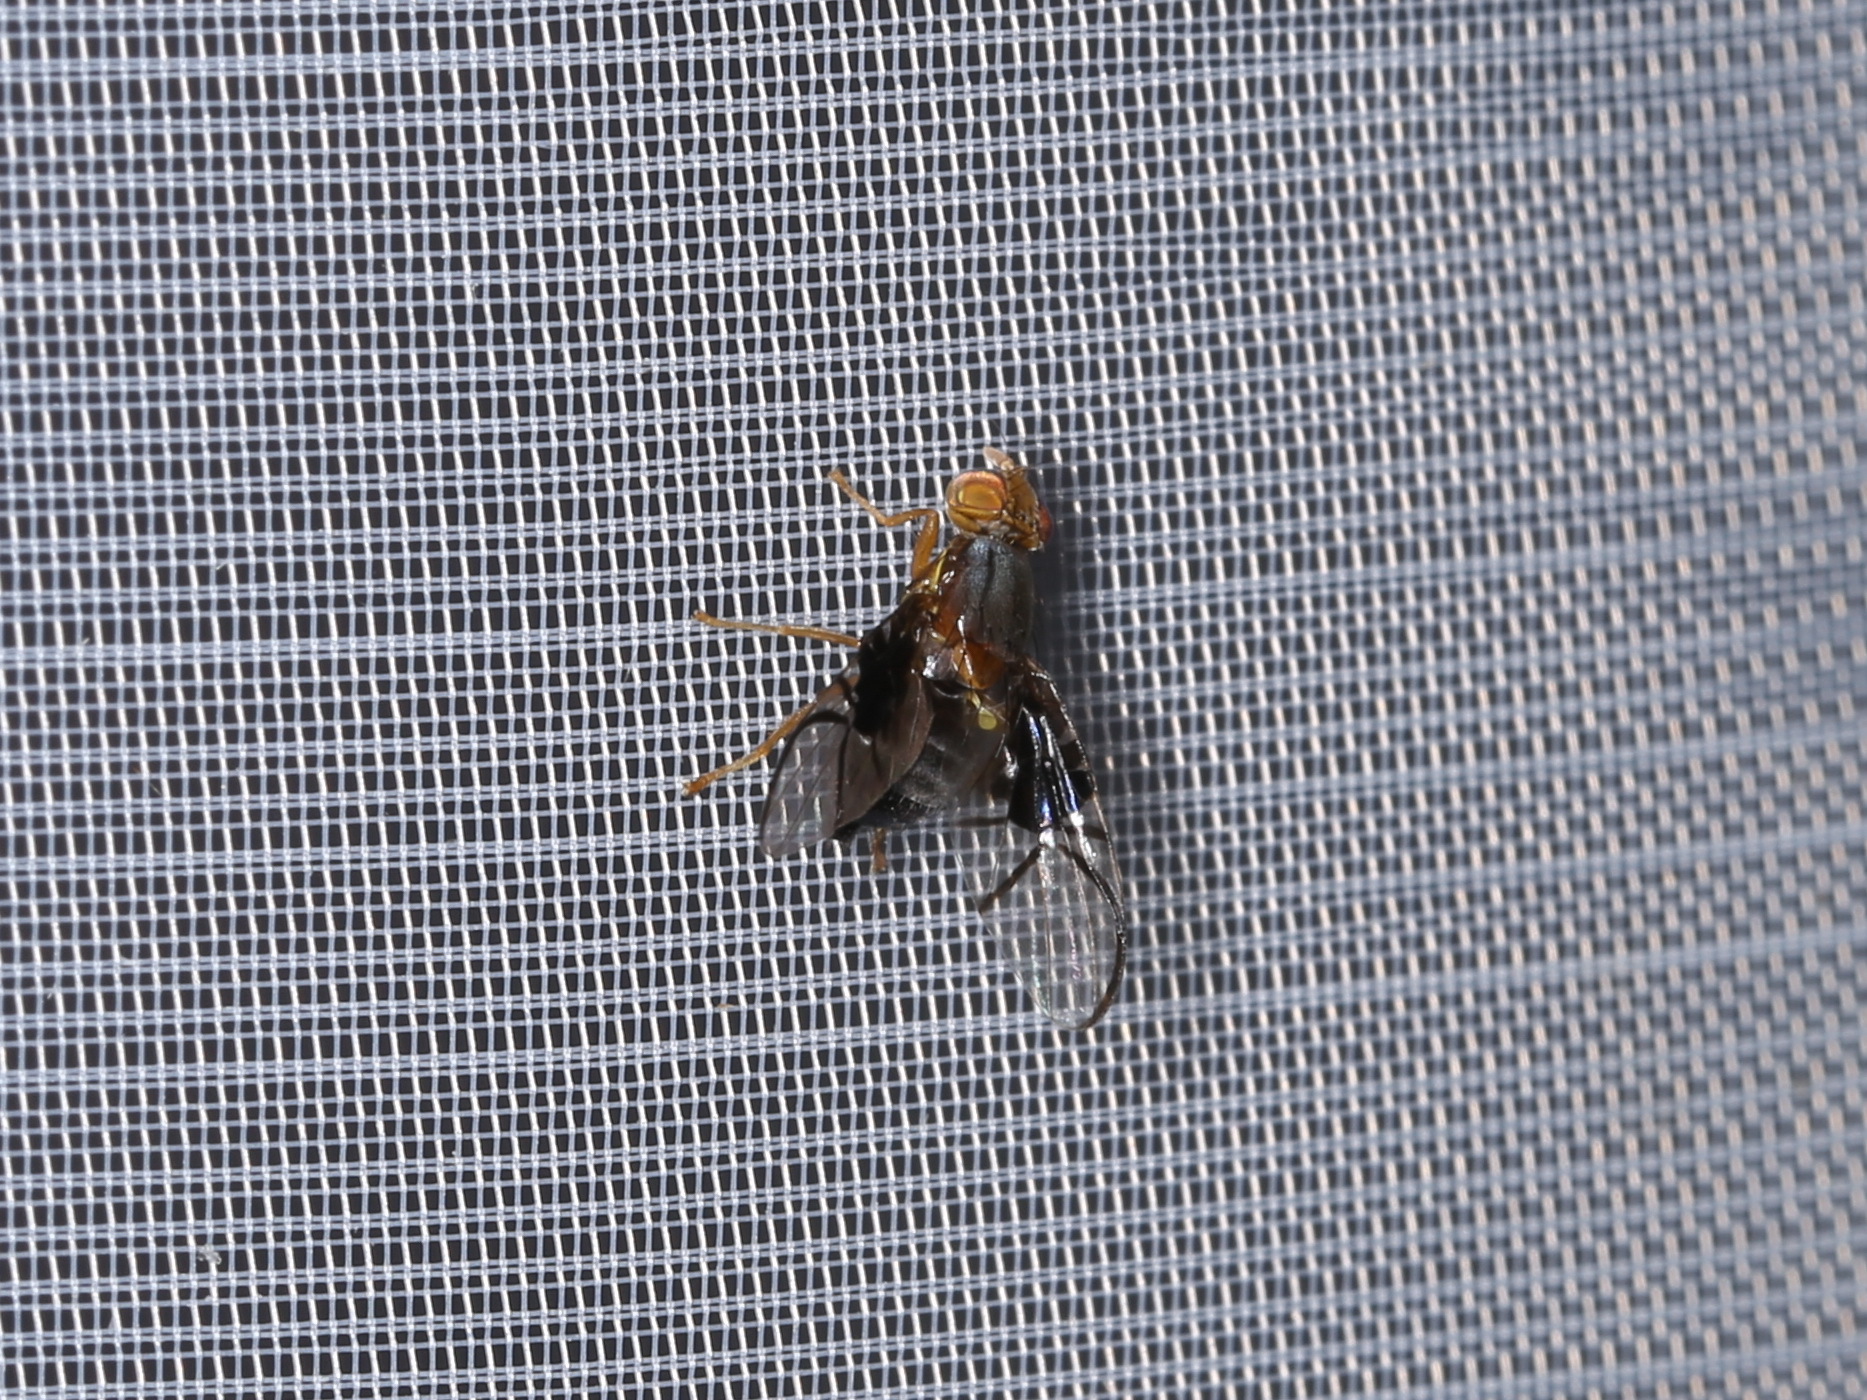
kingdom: Animalia
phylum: Arthropoda
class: Insecta
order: Diptera
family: Tephritidae
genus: Anomoia
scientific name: Anomoia purmunda
